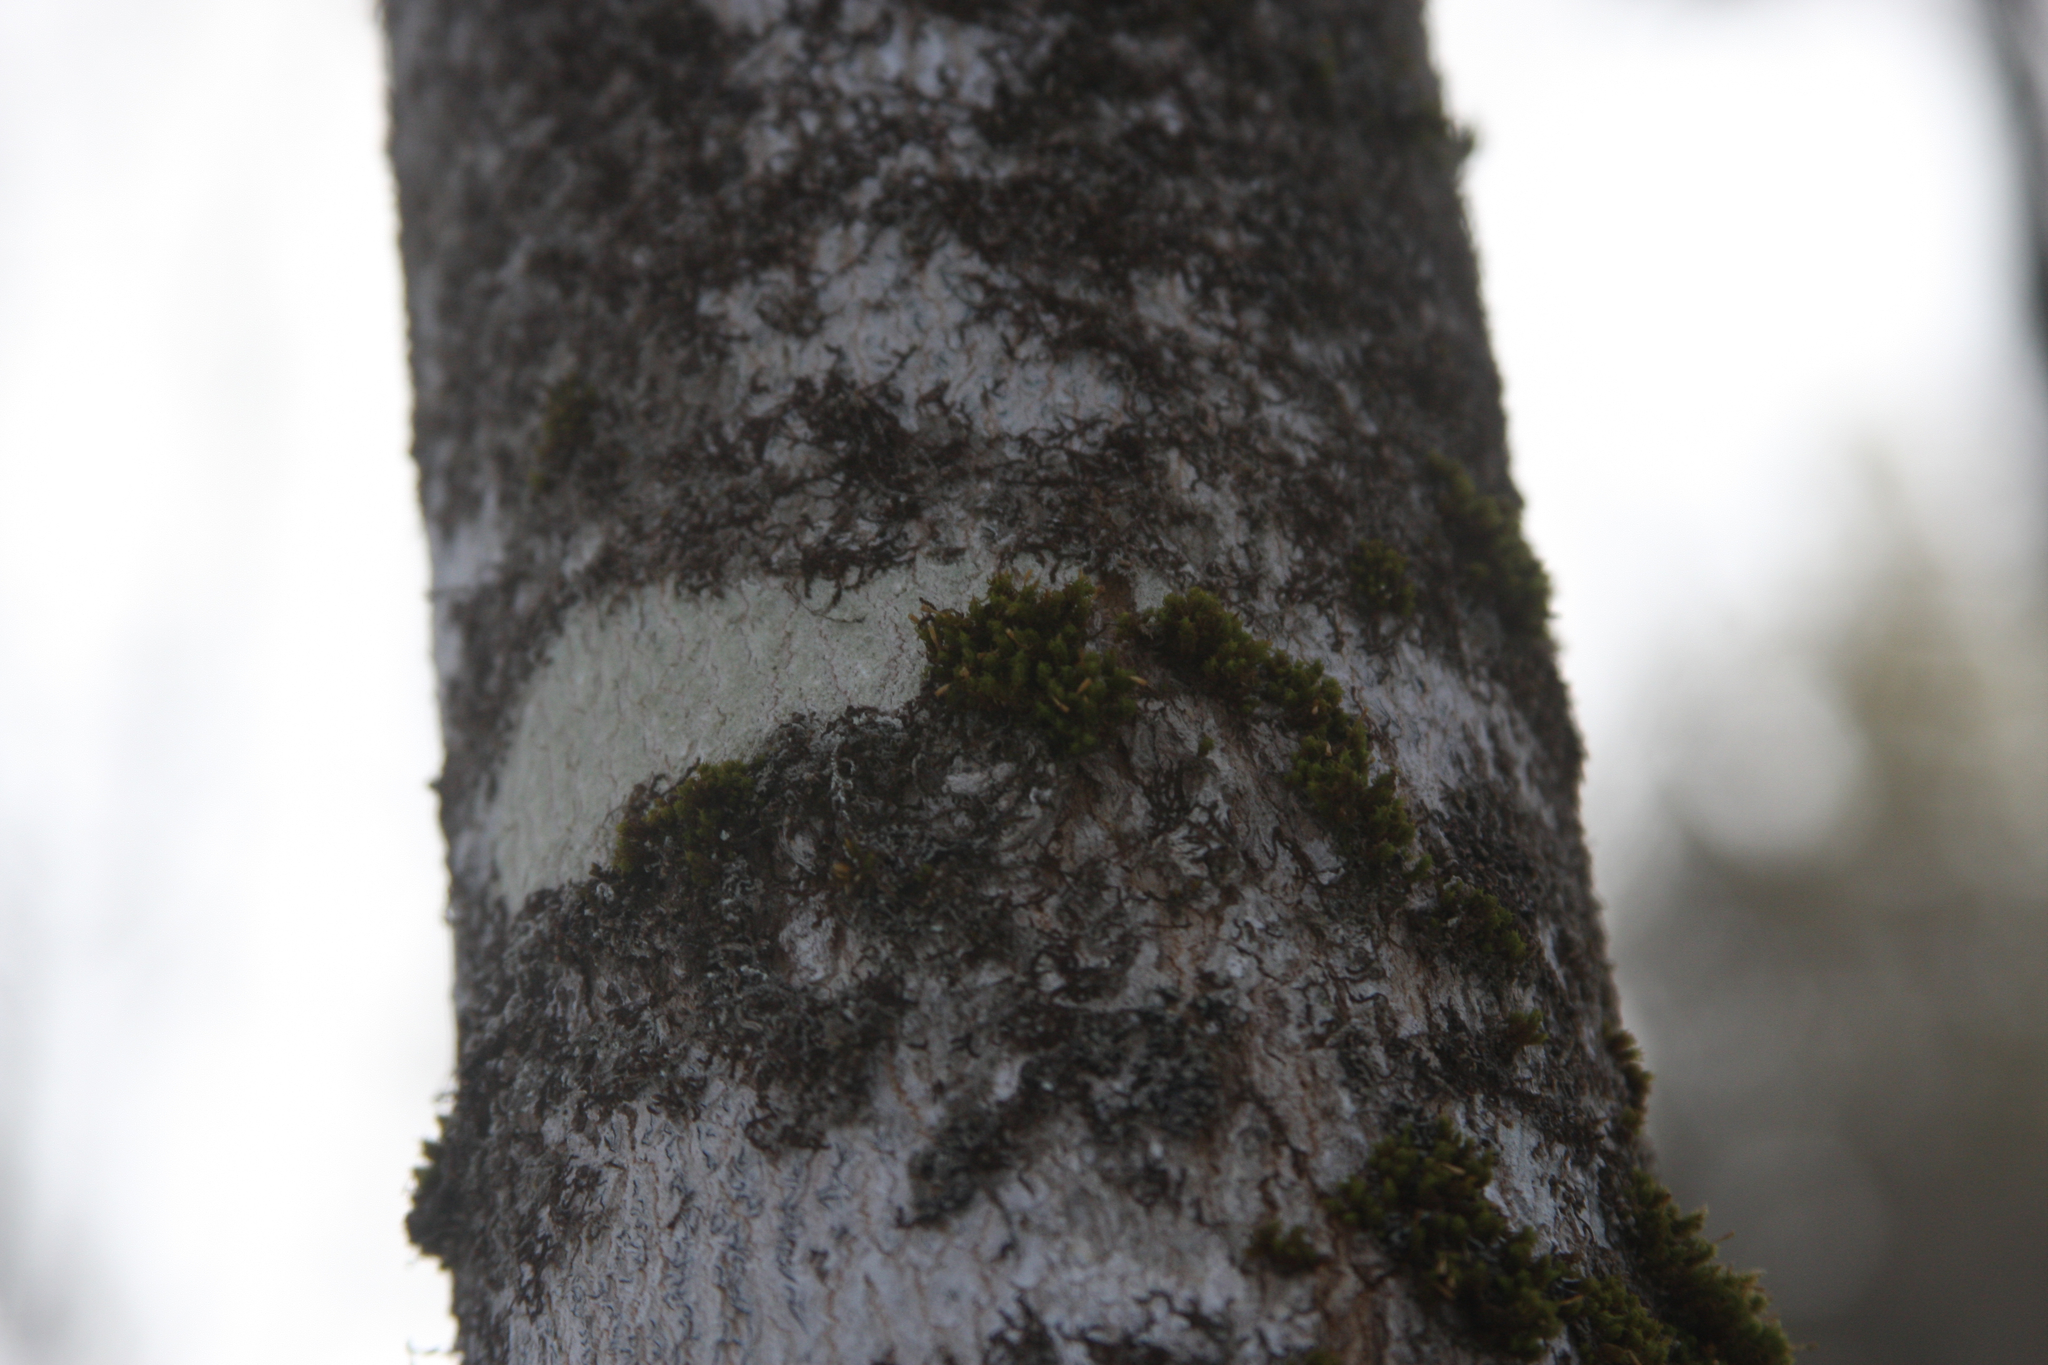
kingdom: Plantae
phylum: Bryophyta
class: Bryopsida
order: Orthotrichales
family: Orthotrichaceae
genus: Ulota
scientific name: Ulota crispa
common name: Crisped pincushion moss
